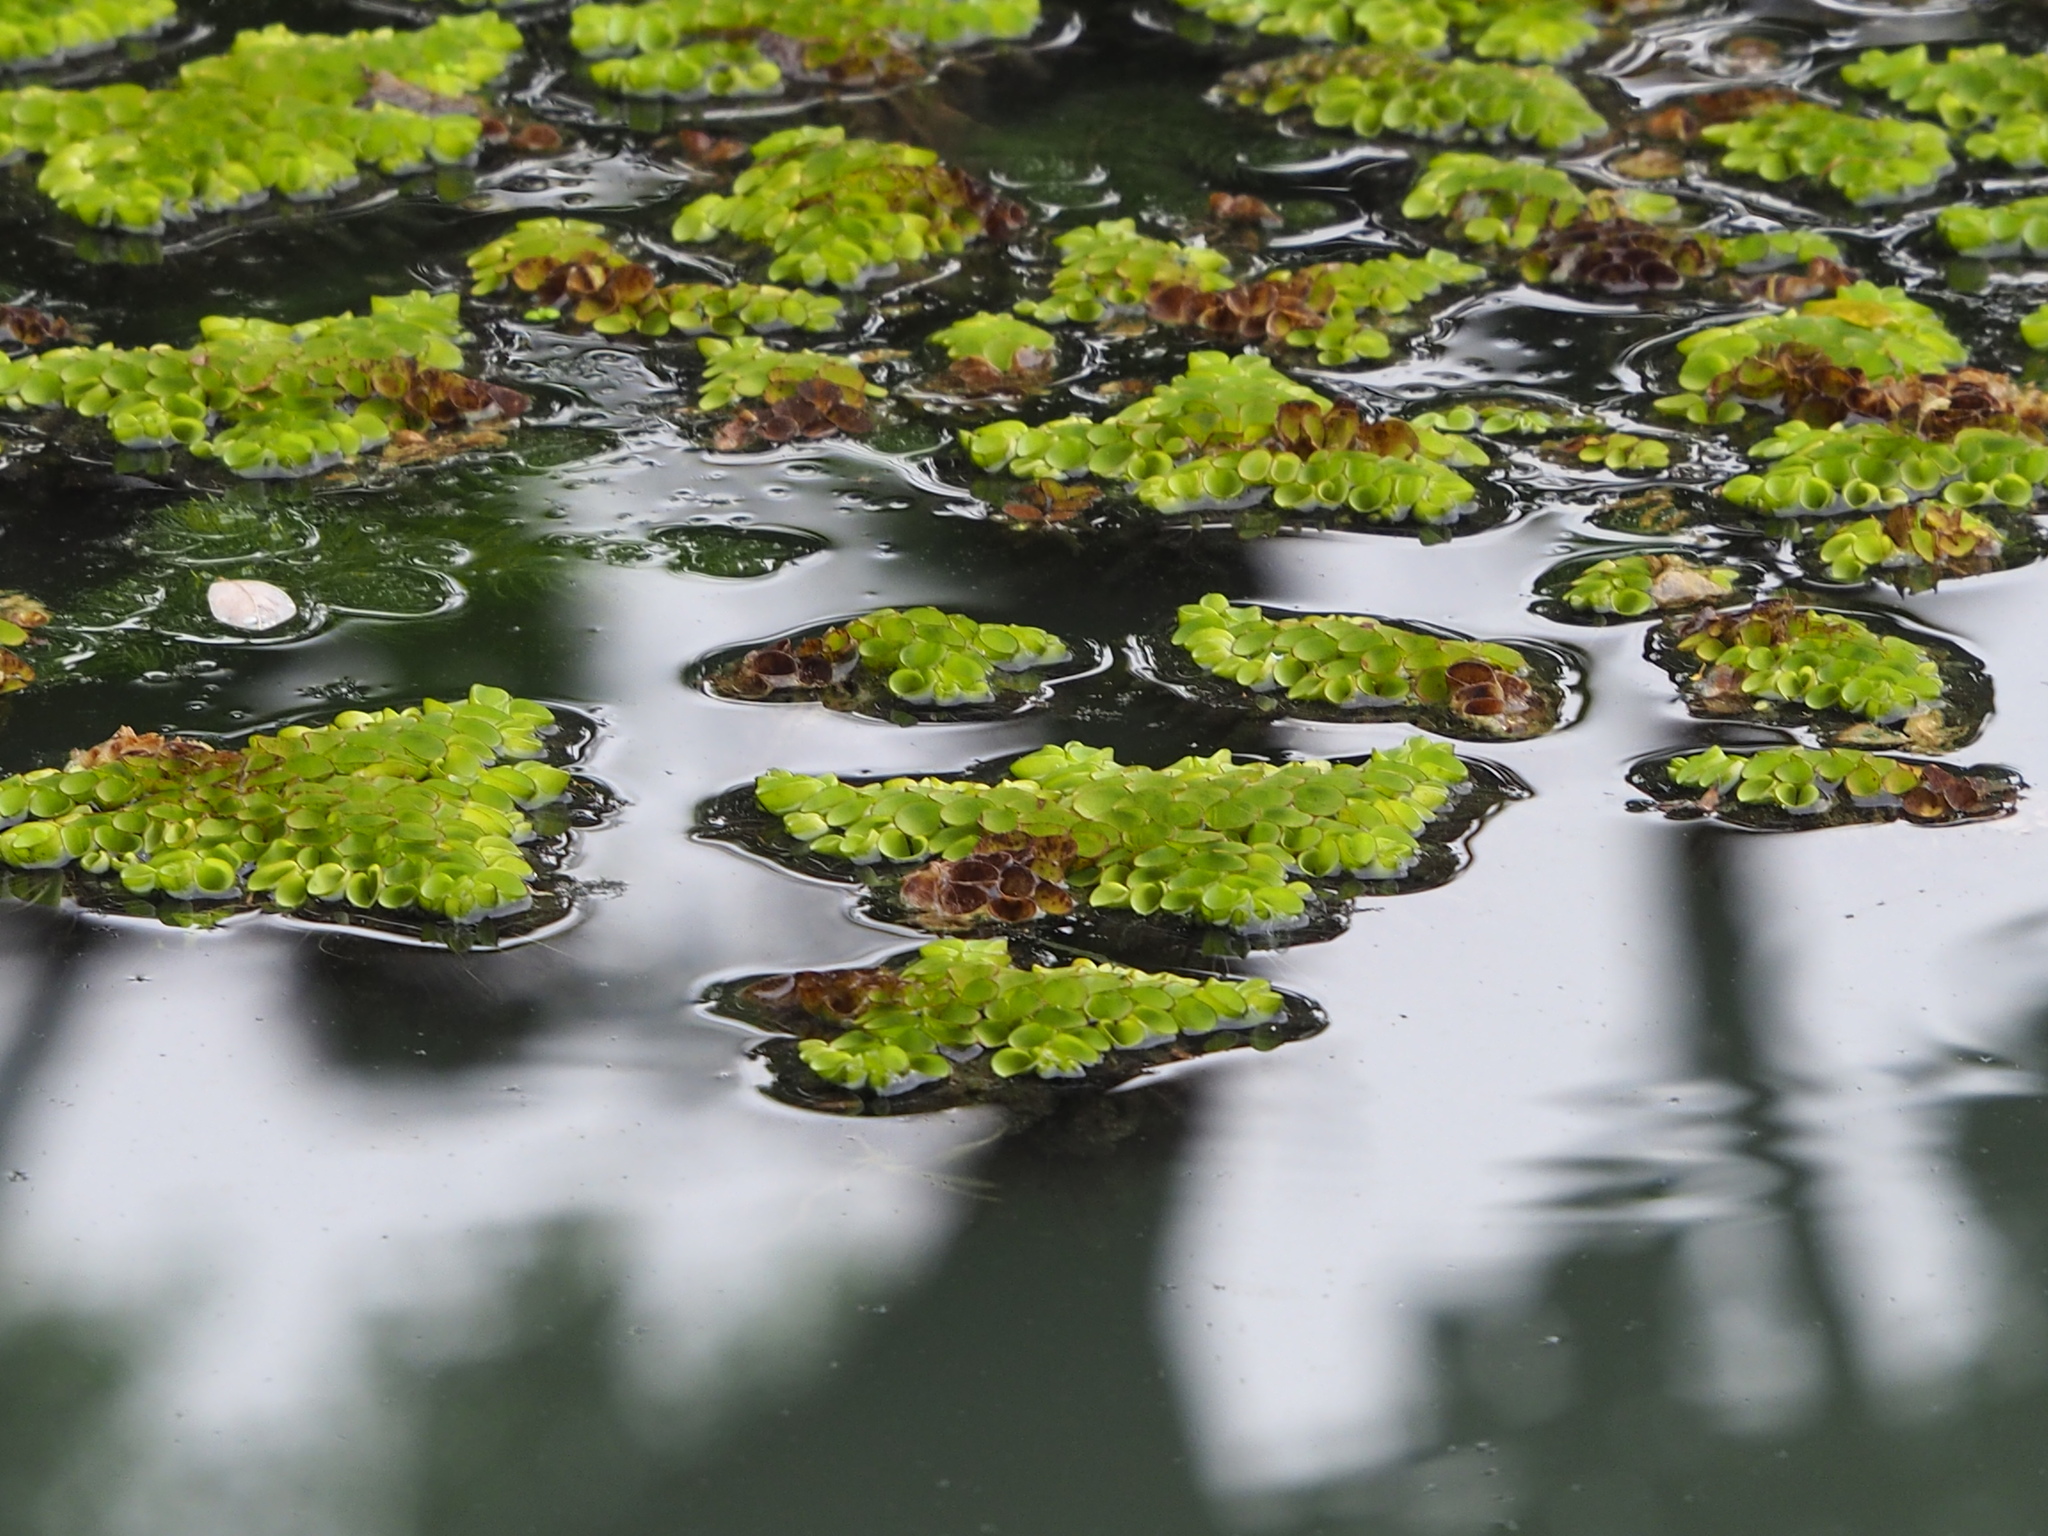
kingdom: Plantae
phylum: Tracheophyta
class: Polypodiopsida
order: Salviniales
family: Salviniaceae
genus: Salvinia
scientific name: Salvinia cucullata
